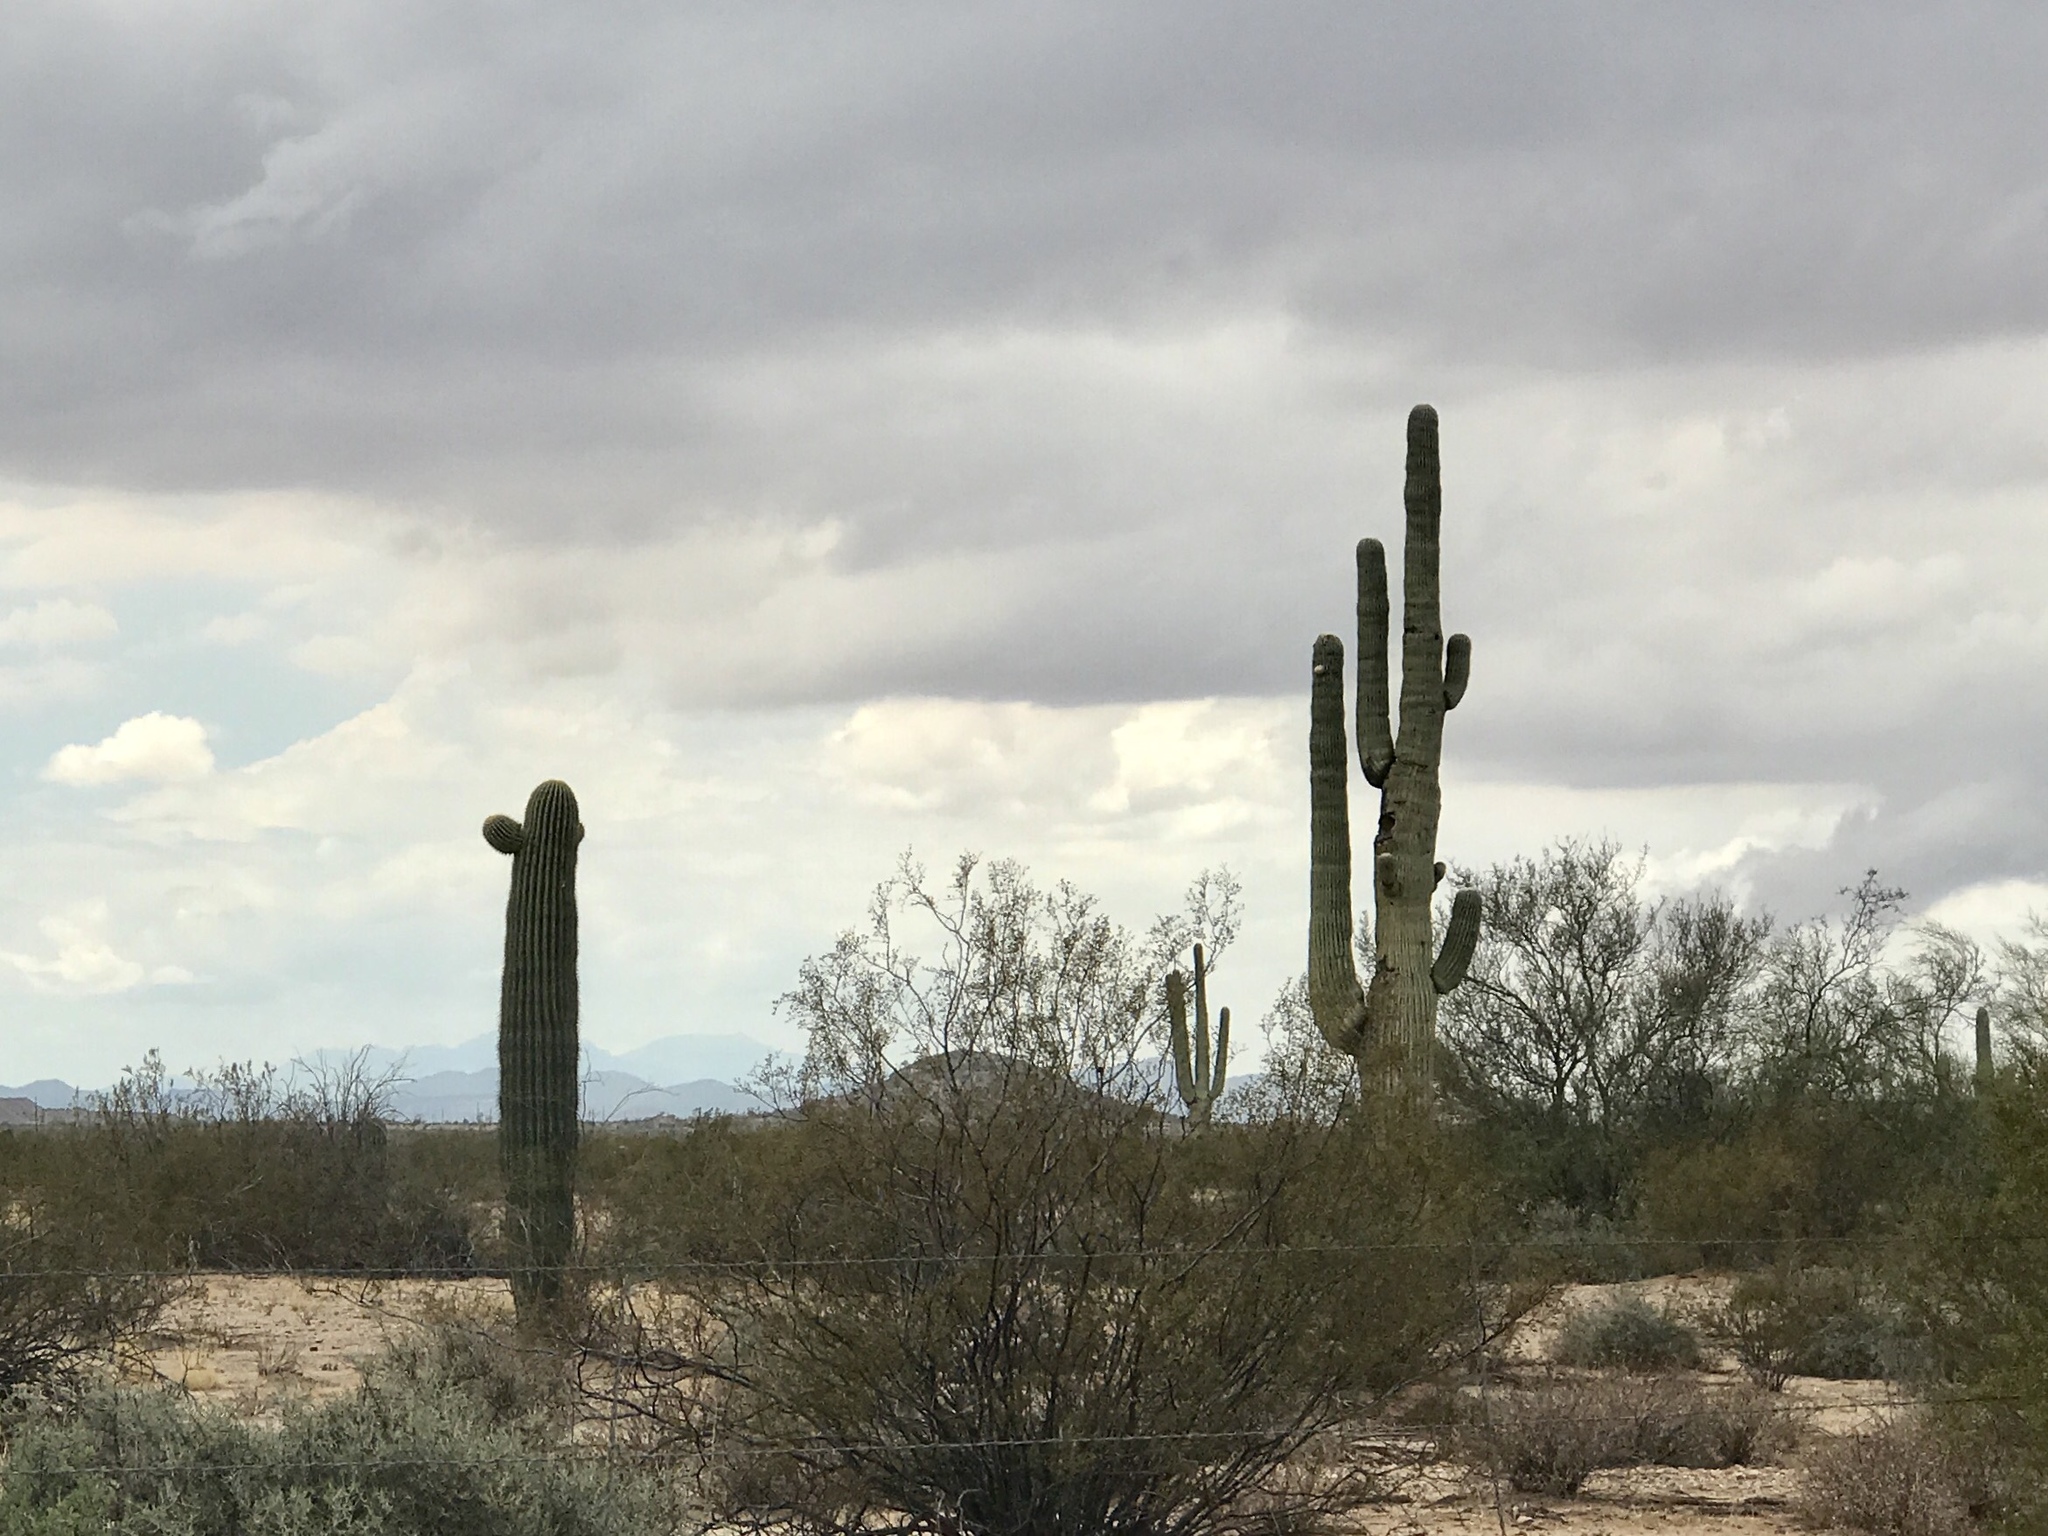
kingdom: Plantae
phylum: Tracheophyta
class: Magnoliopsida
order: Caryophyllales
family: Cactaceae
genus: Carnegiea
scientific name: Carnegiea gigantea
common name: Saguaro
